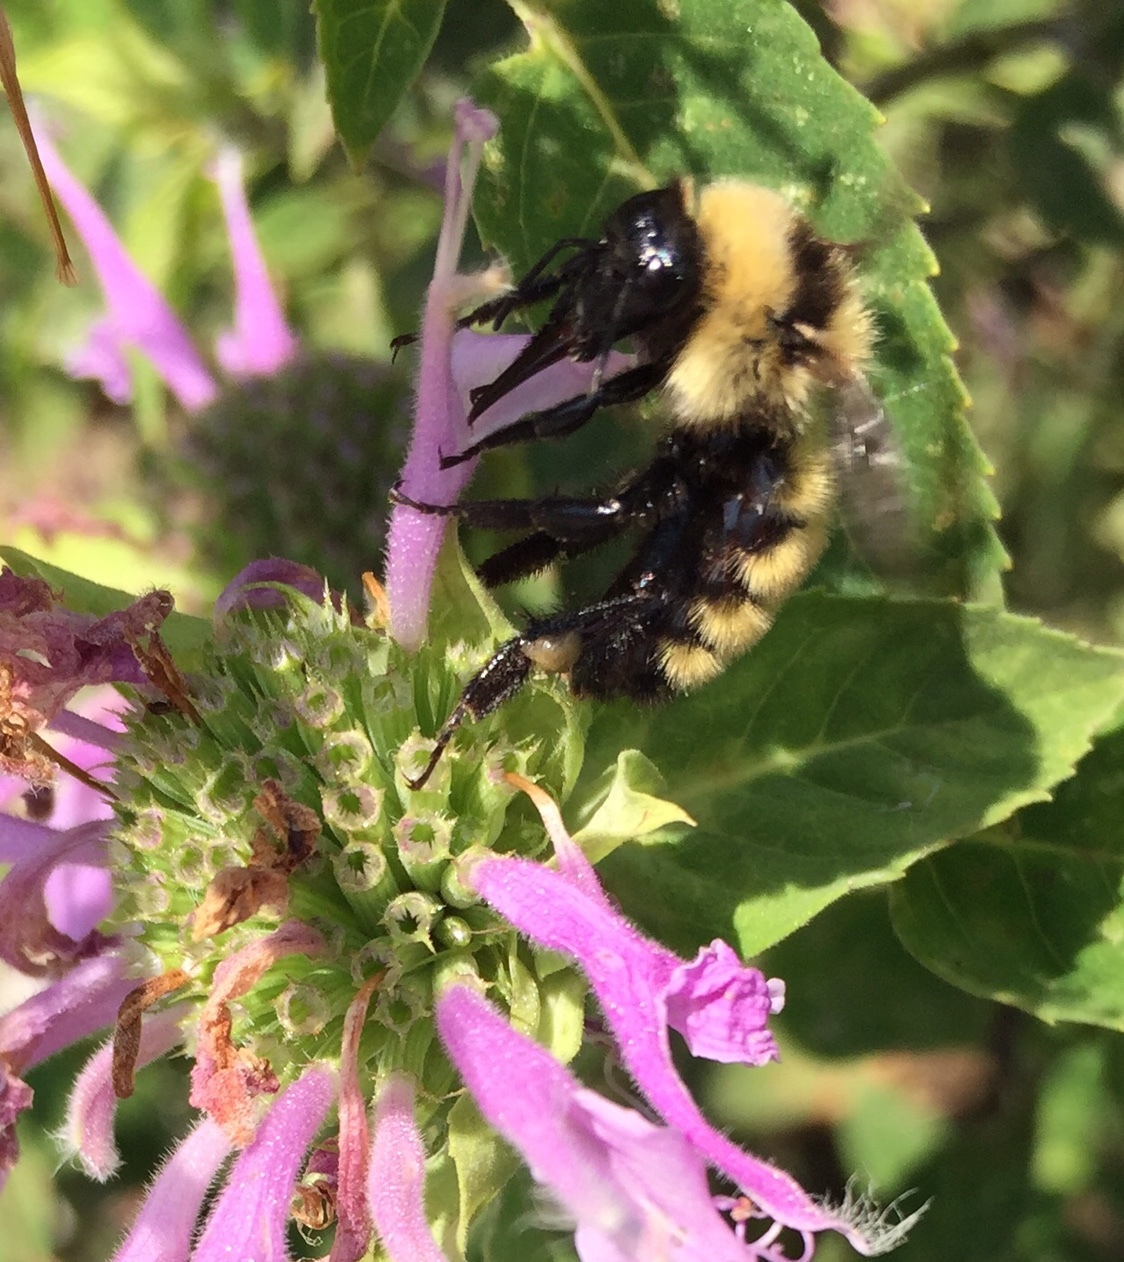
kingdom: Animalia
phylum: Arthropoda
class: Insecta
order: Hymenoptera
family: Apidae
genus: Bombus
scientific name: Bombus fervidus
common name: Yellow bumble bee
